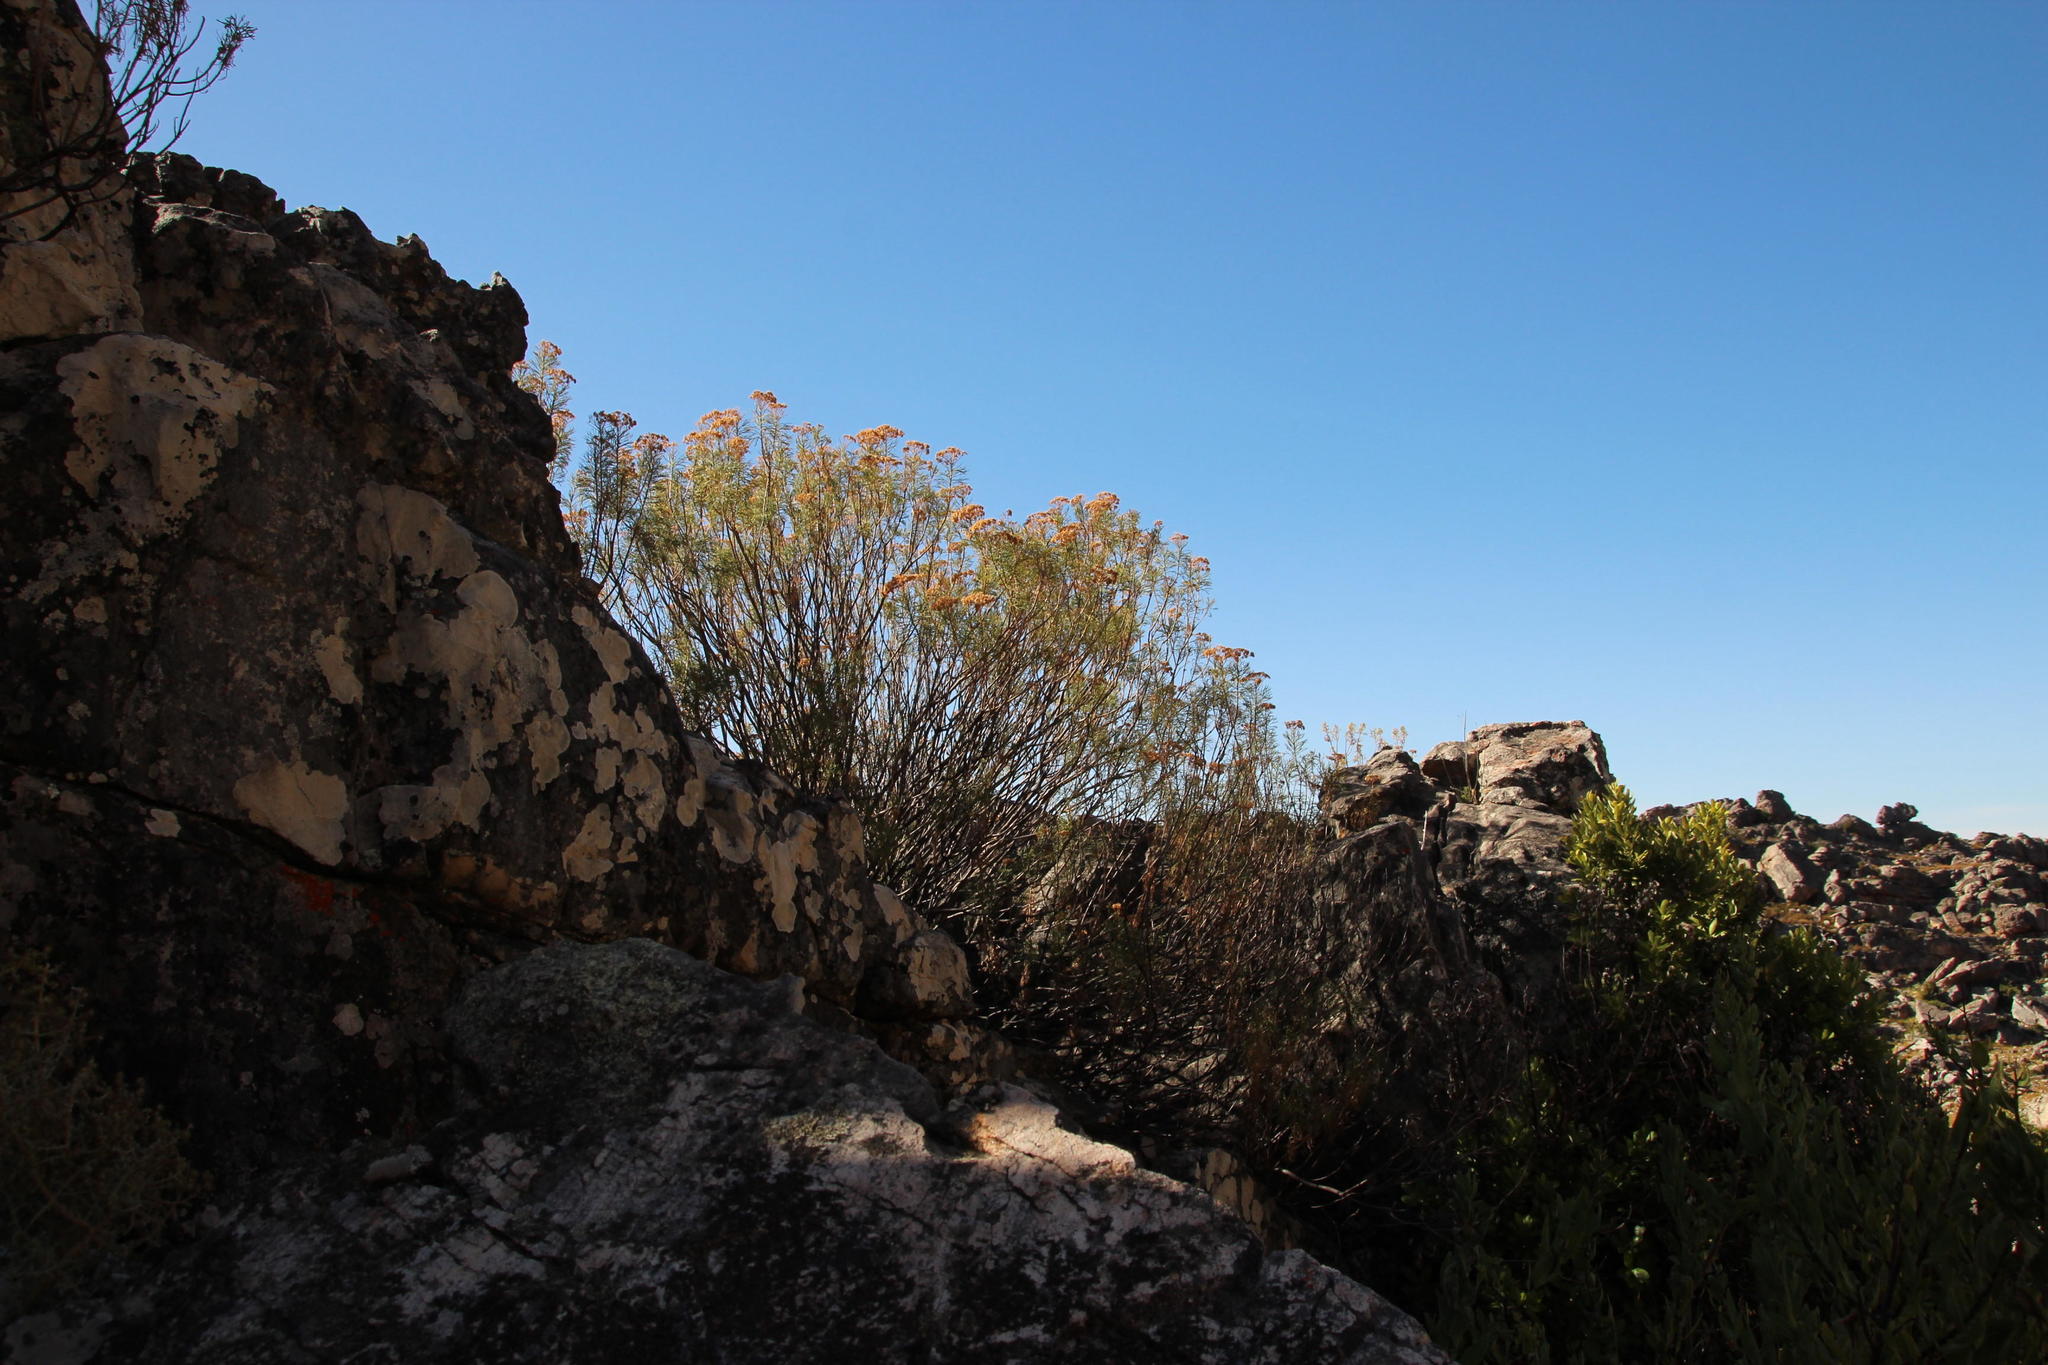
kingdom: Plantae
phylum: Tracheophyta
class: Magnoliopsida
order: Asterales
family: Asteraceae
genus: Hymenolepis
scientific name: Hymenolepis crithmifolia
